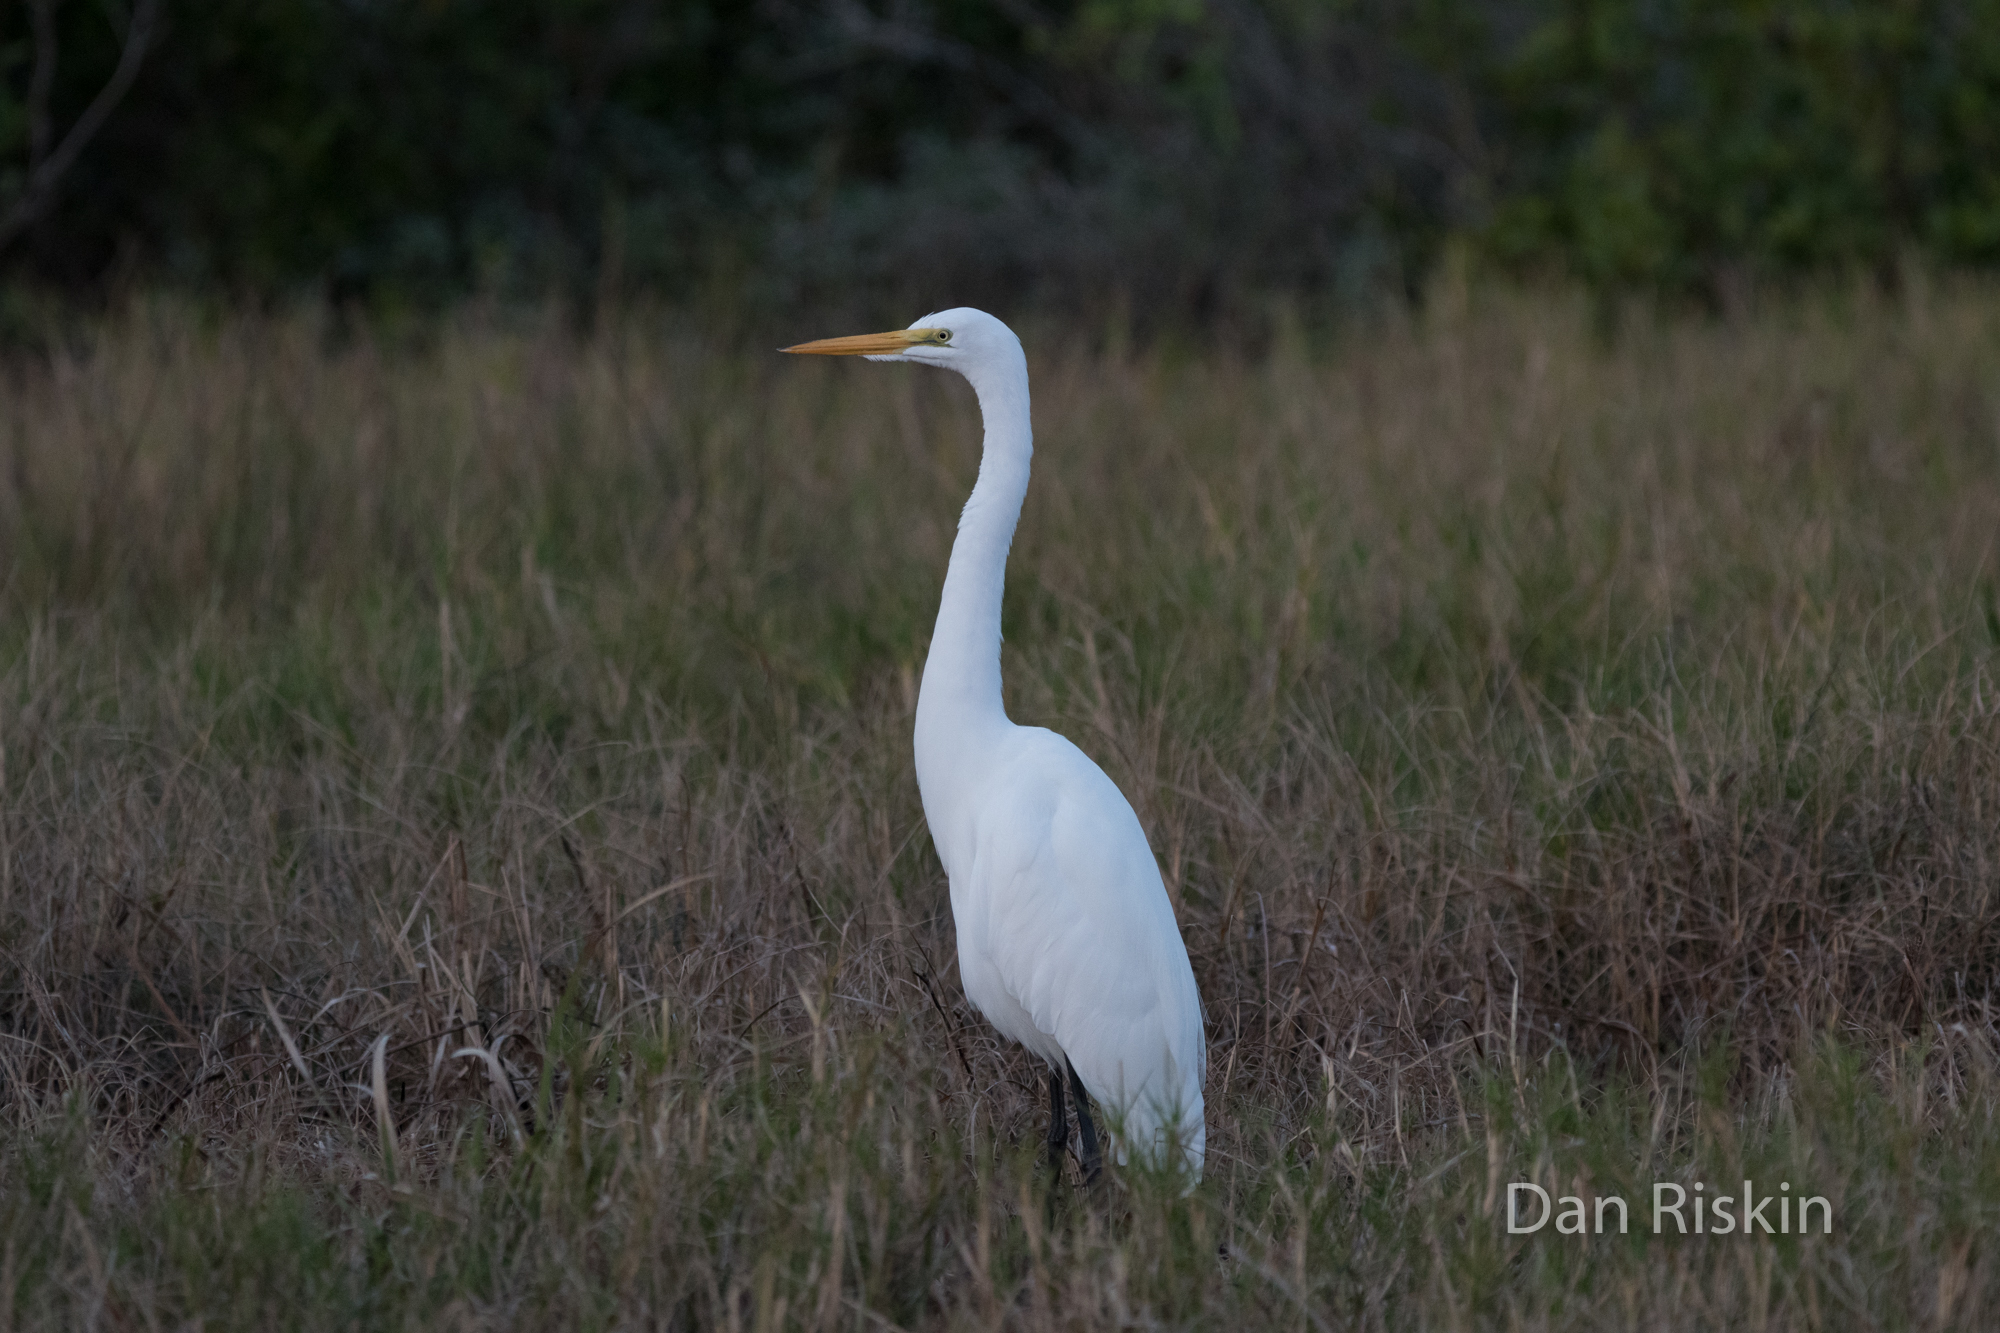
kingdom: Animalia
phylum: Chordata
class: Aves
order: Pelecaniformes
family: Ardeidae
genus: Ardea
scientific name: Ardea alba
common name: Great egret
